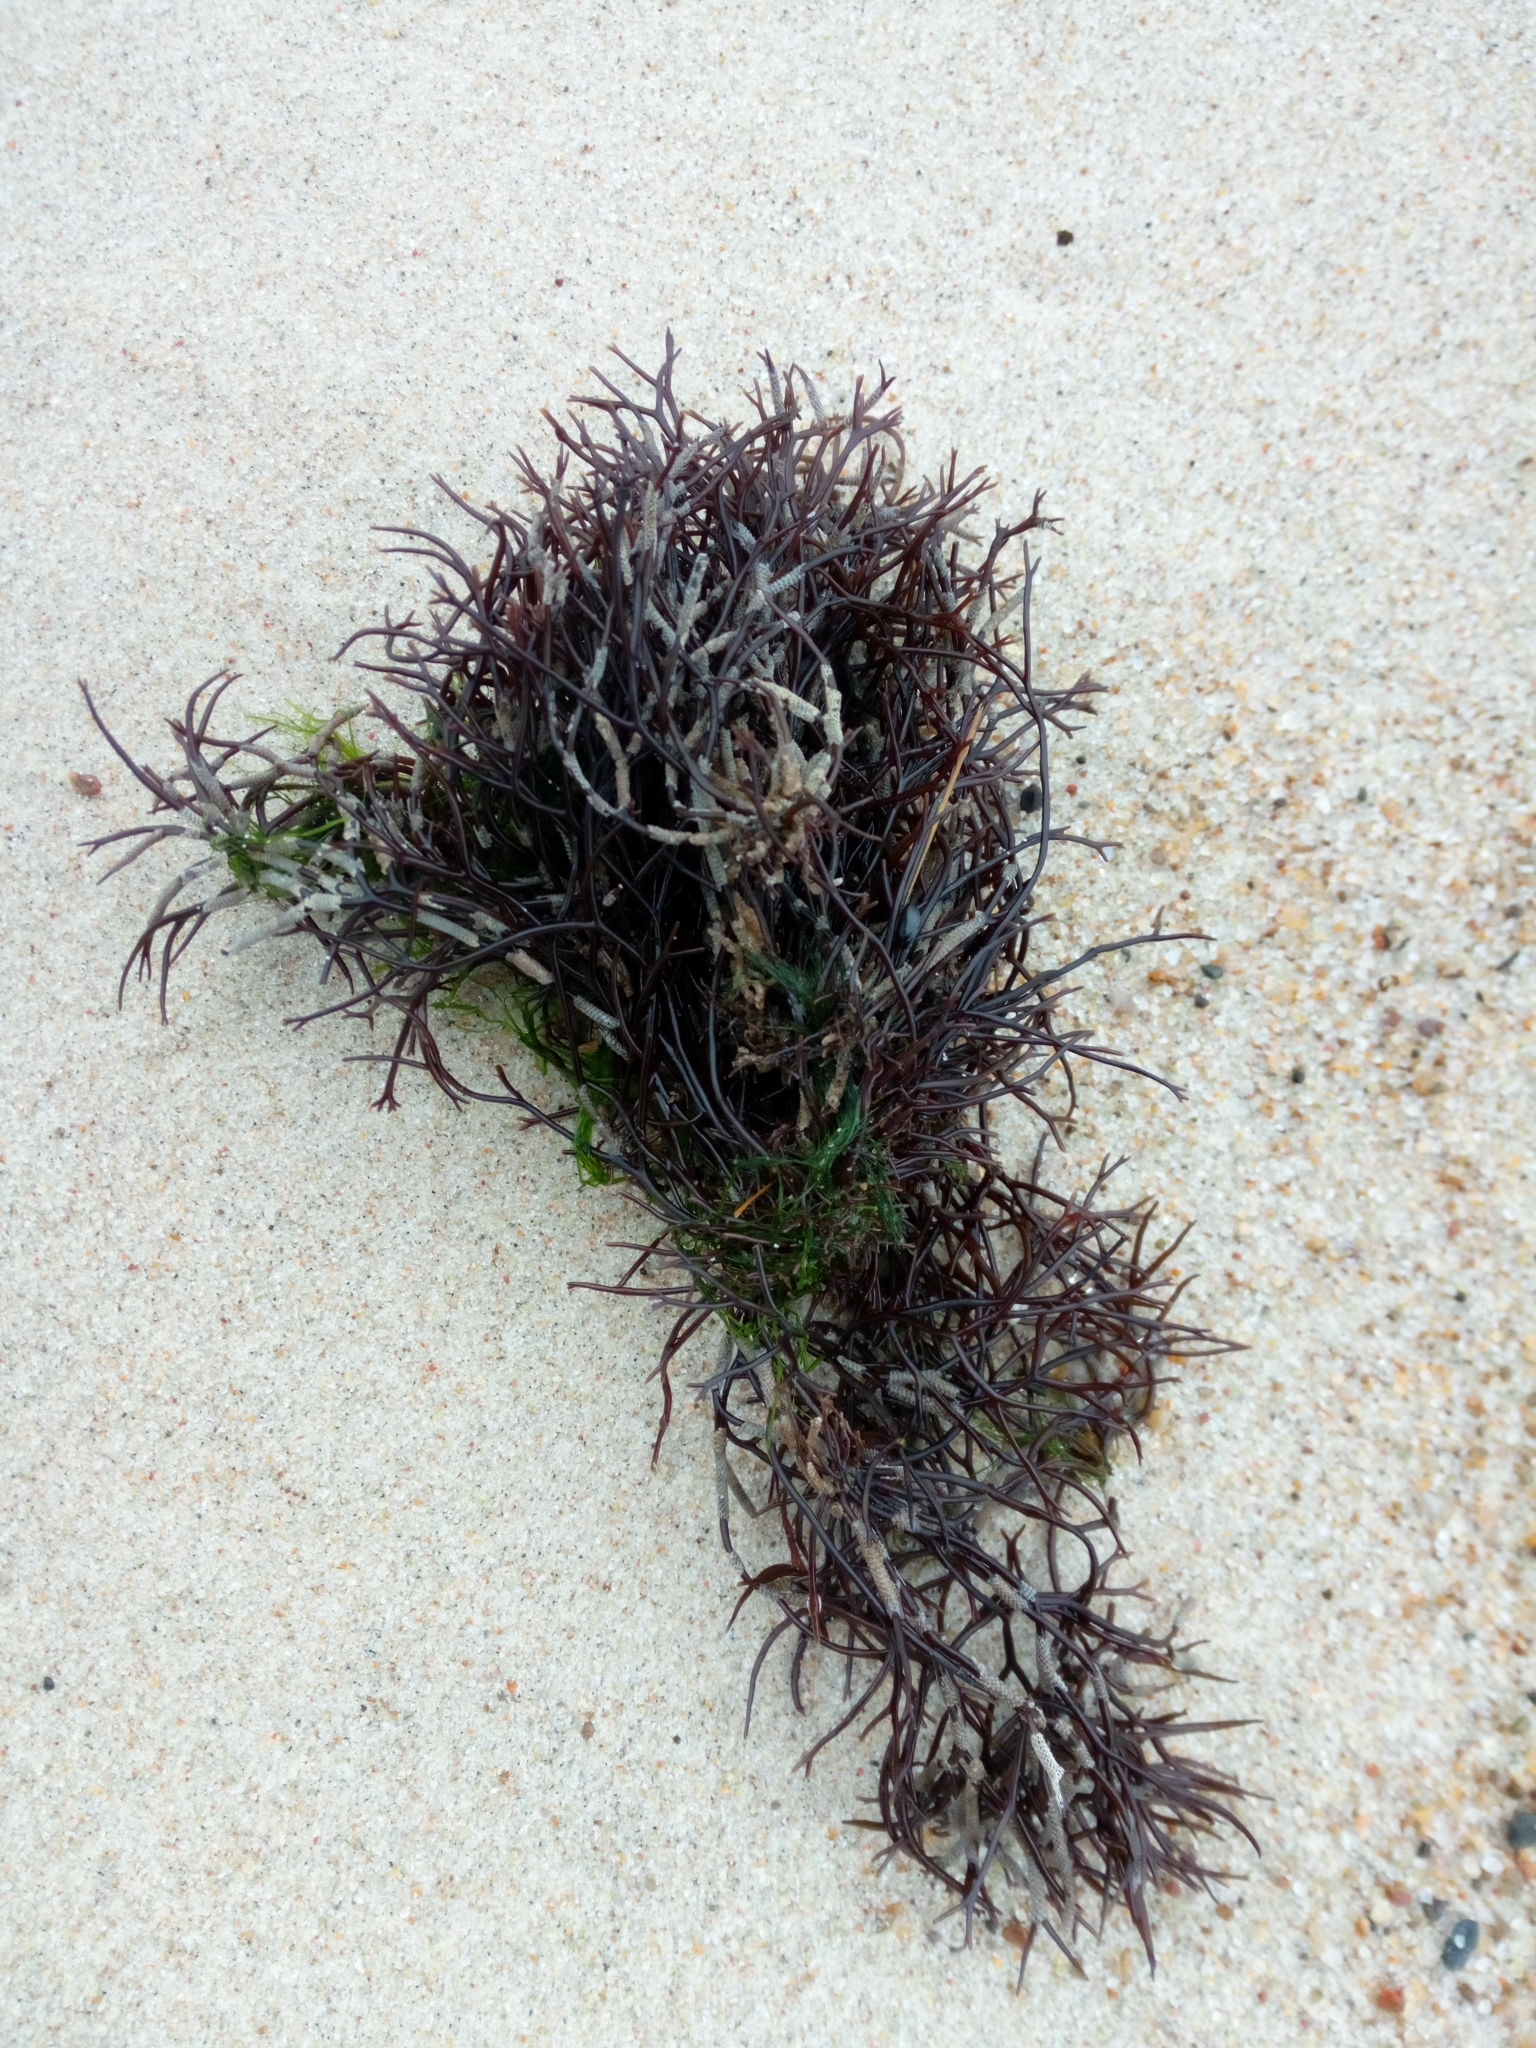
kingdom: Plantae
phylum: Rhodophyta
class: Florideophyceae
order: Gigartinales
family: Furcellariaceae
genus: Furcellaria
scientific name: Furcellaria lumbricalis
